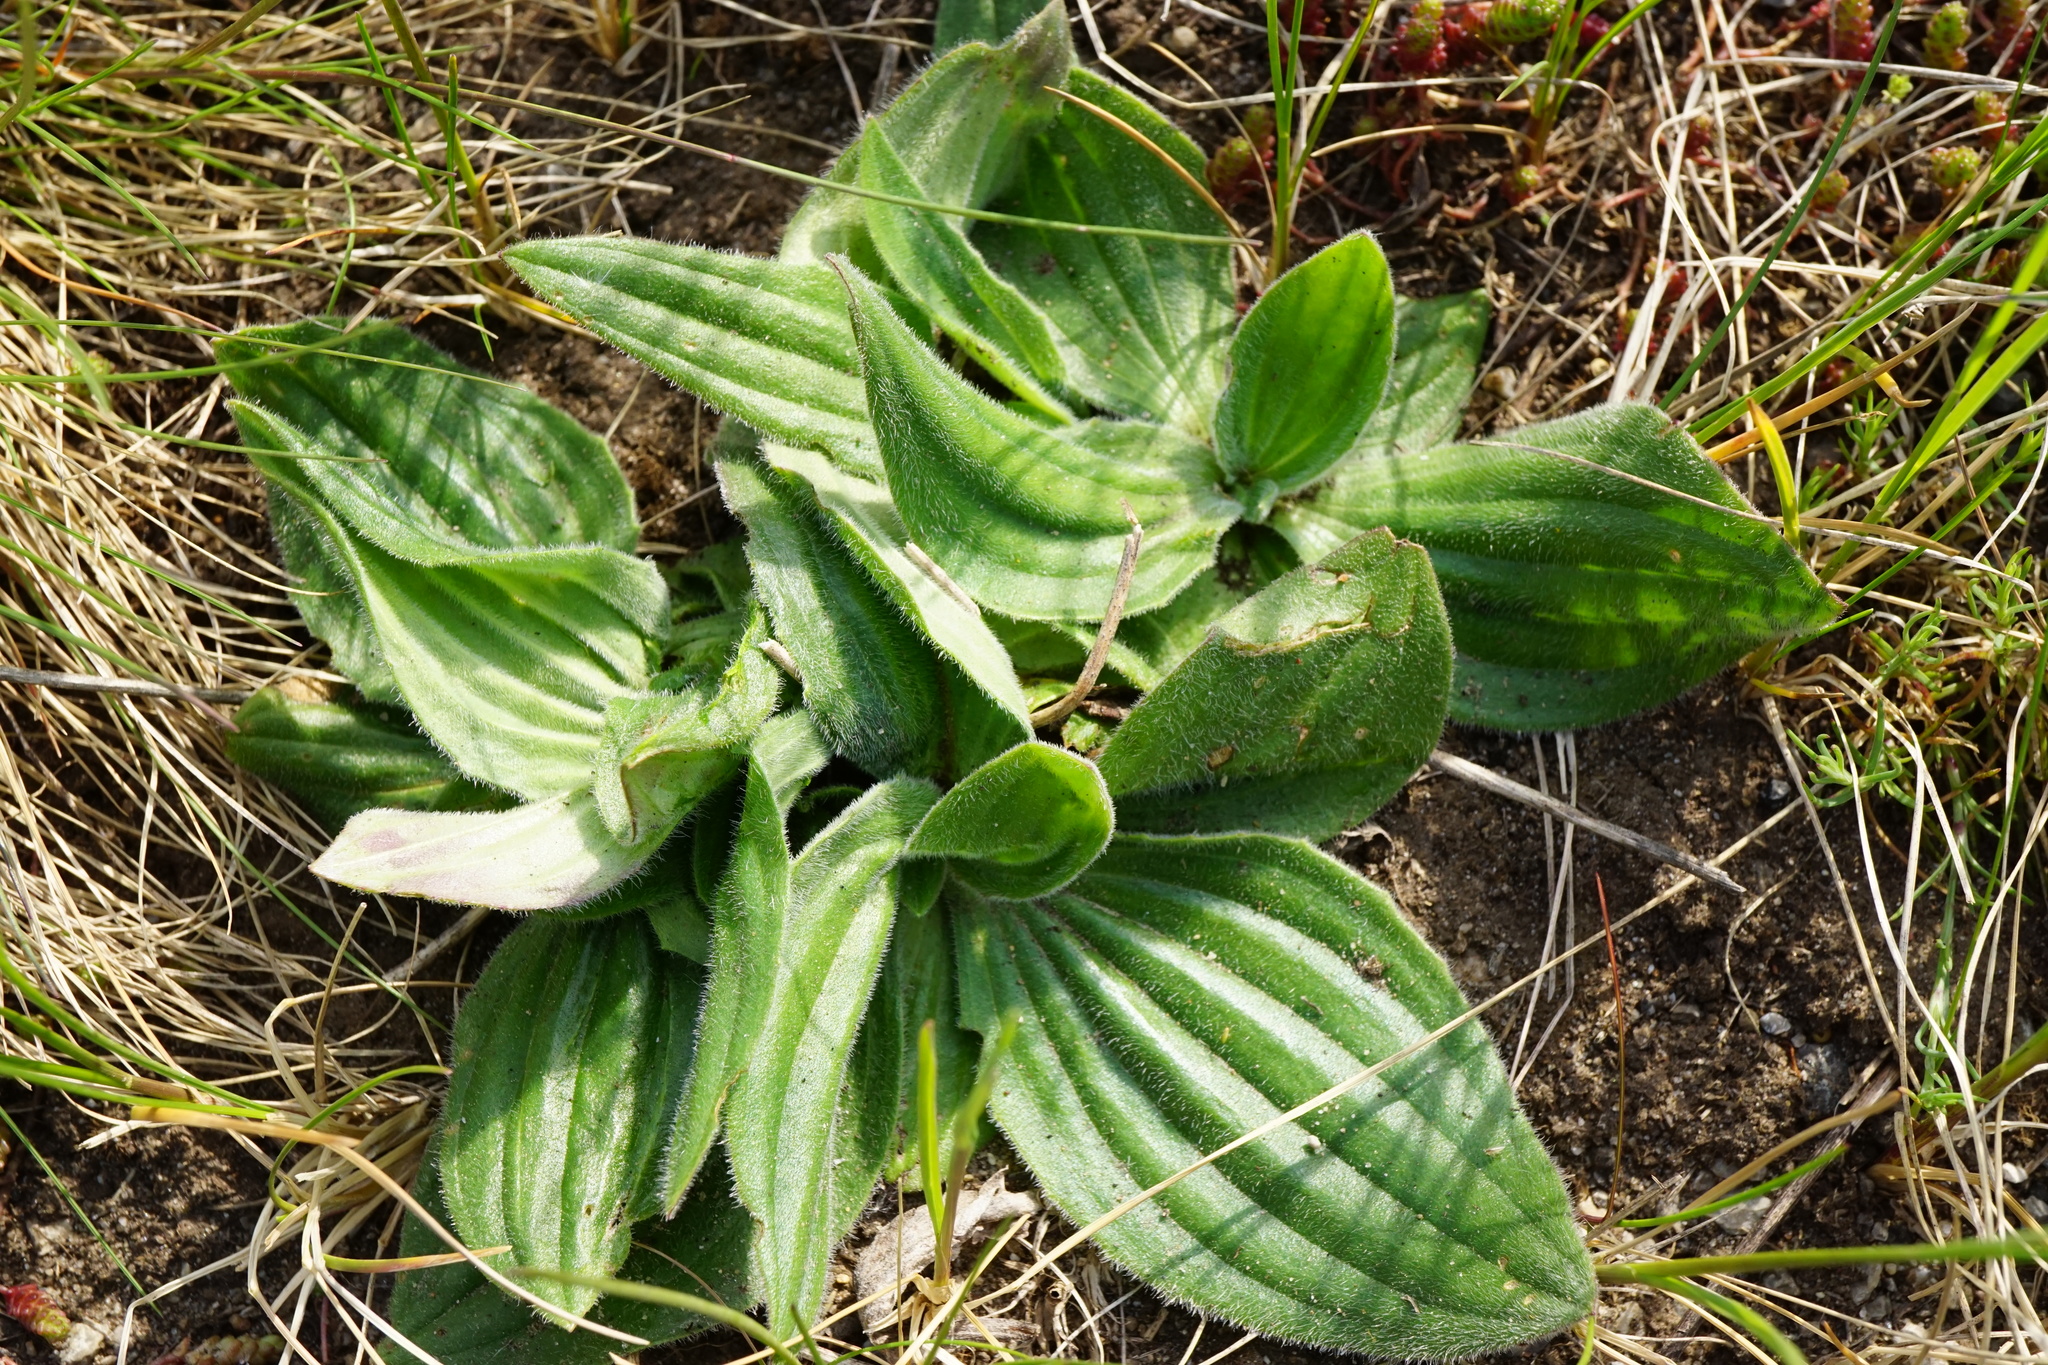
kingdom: Plantae
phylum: Tracheophyta
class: Magnoliopsida
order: Lamiales
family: Plantaginaceae
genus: Plantago
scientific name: Plantago media
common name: Hoary plantain
